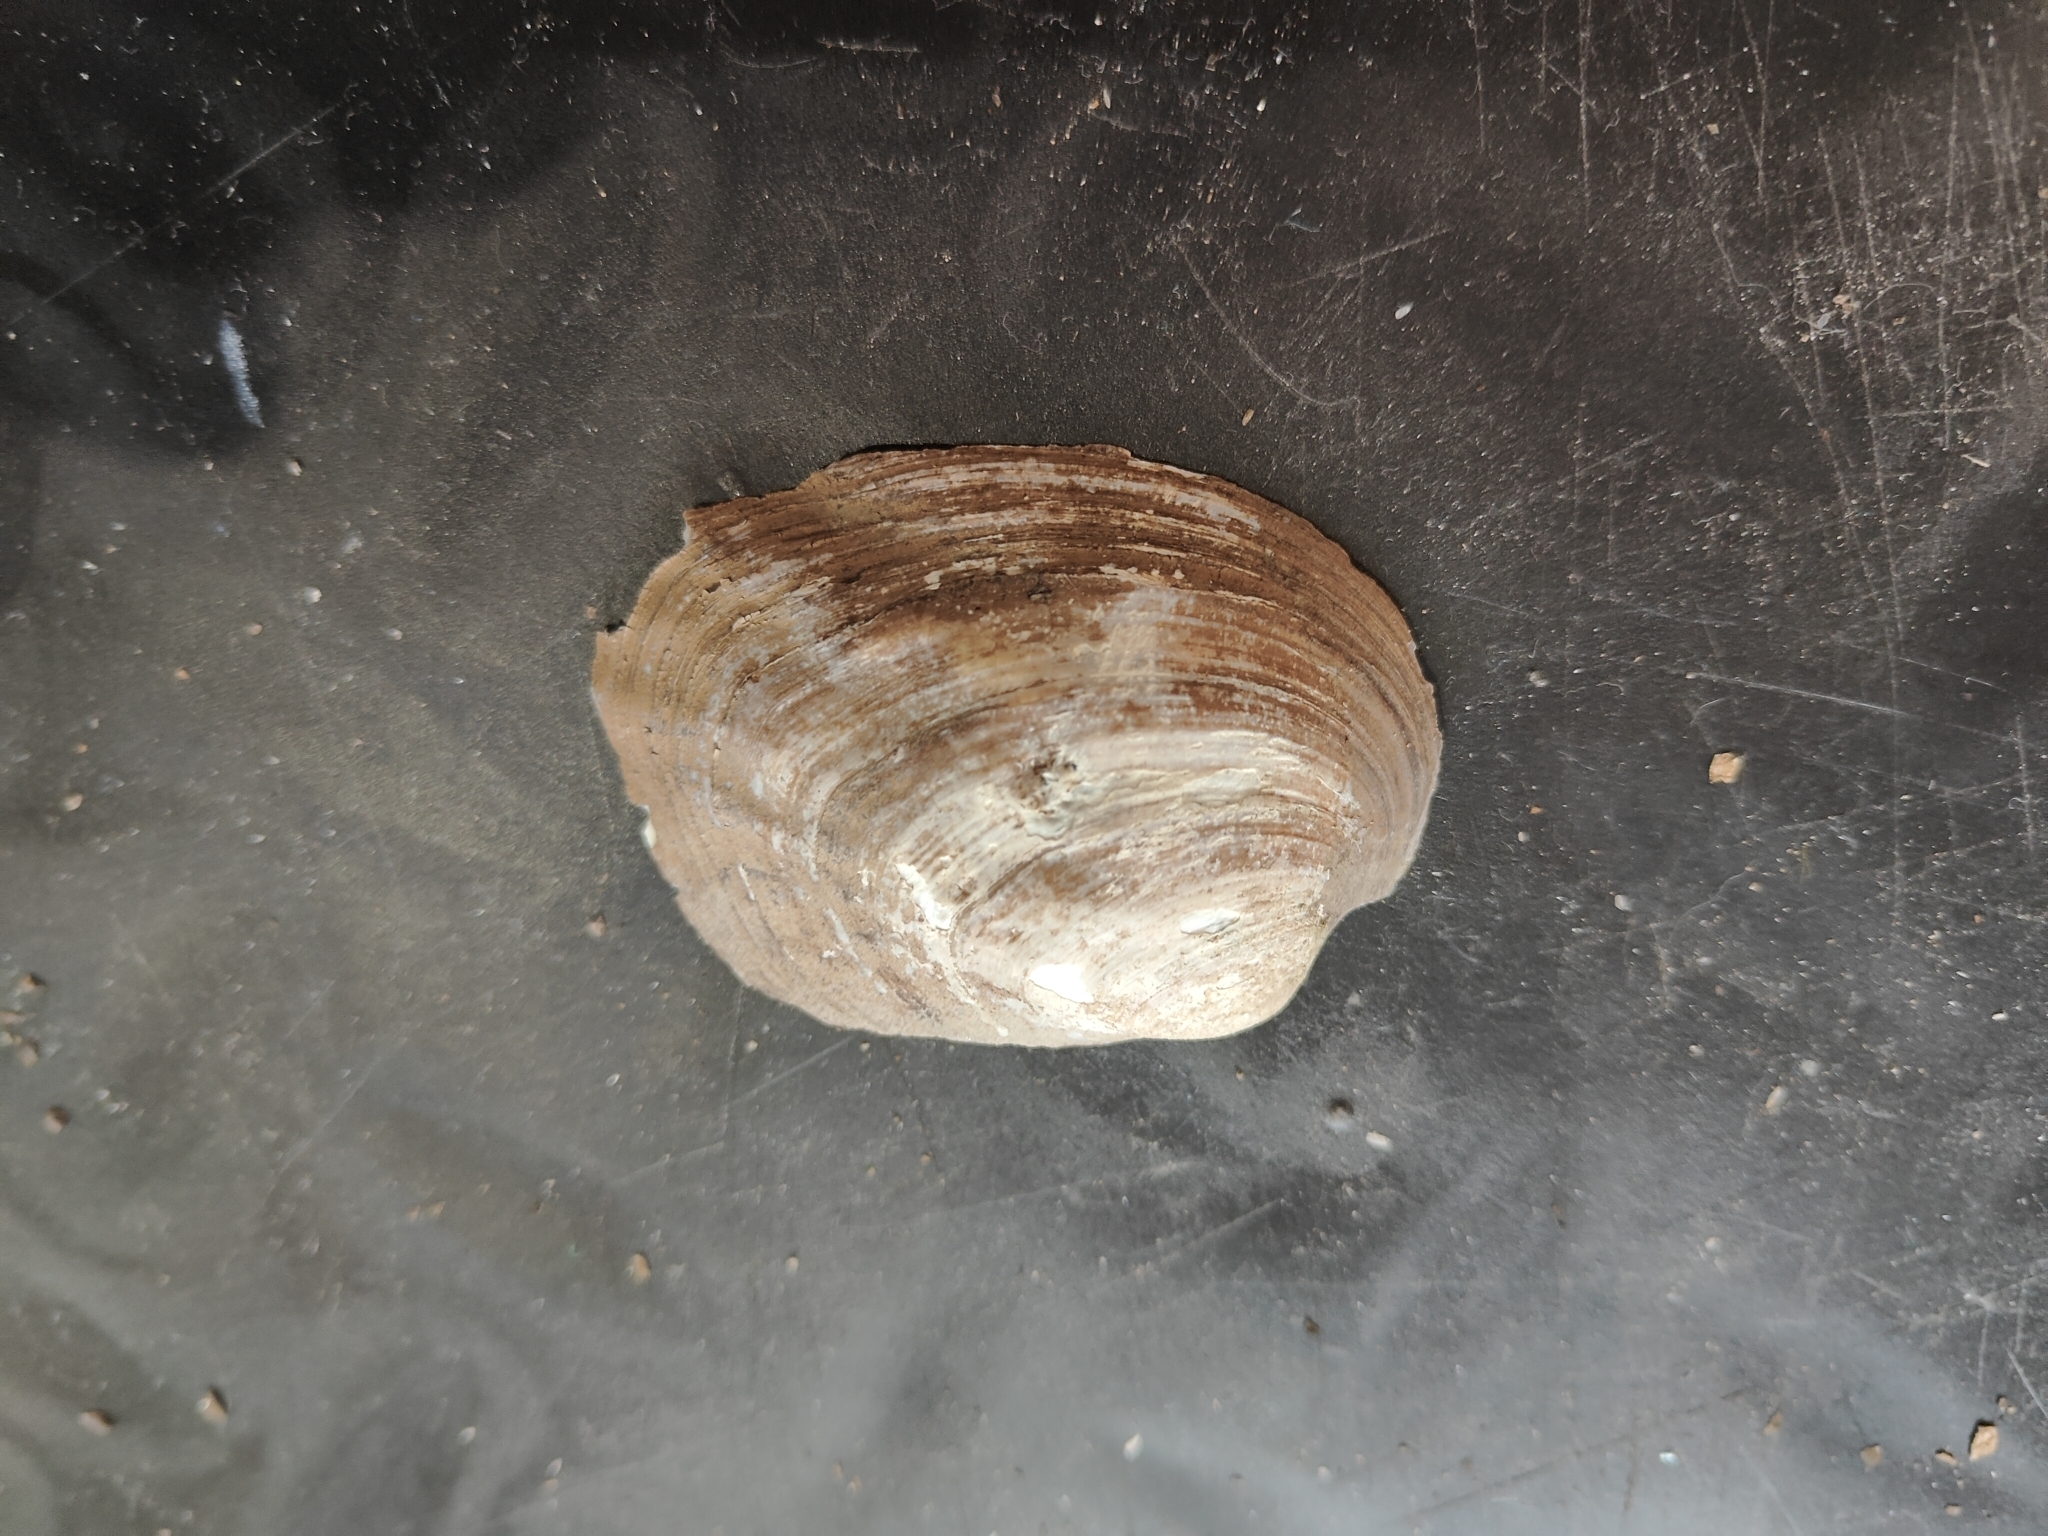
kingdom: Animalia
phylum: Mollusca
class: Bivalvia
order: Unionida
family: Unionidae
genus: Amblema
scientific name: Amblema plicata
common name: Threeridge
